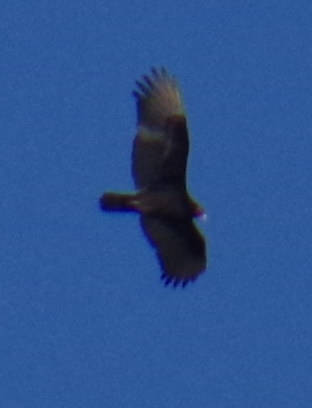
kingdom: Animalia
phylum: Chordata
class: Aves
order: Accipitriformes
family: Cathartidae
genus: Cathartes
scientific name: Cathartes aura
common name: Turkey vulture
